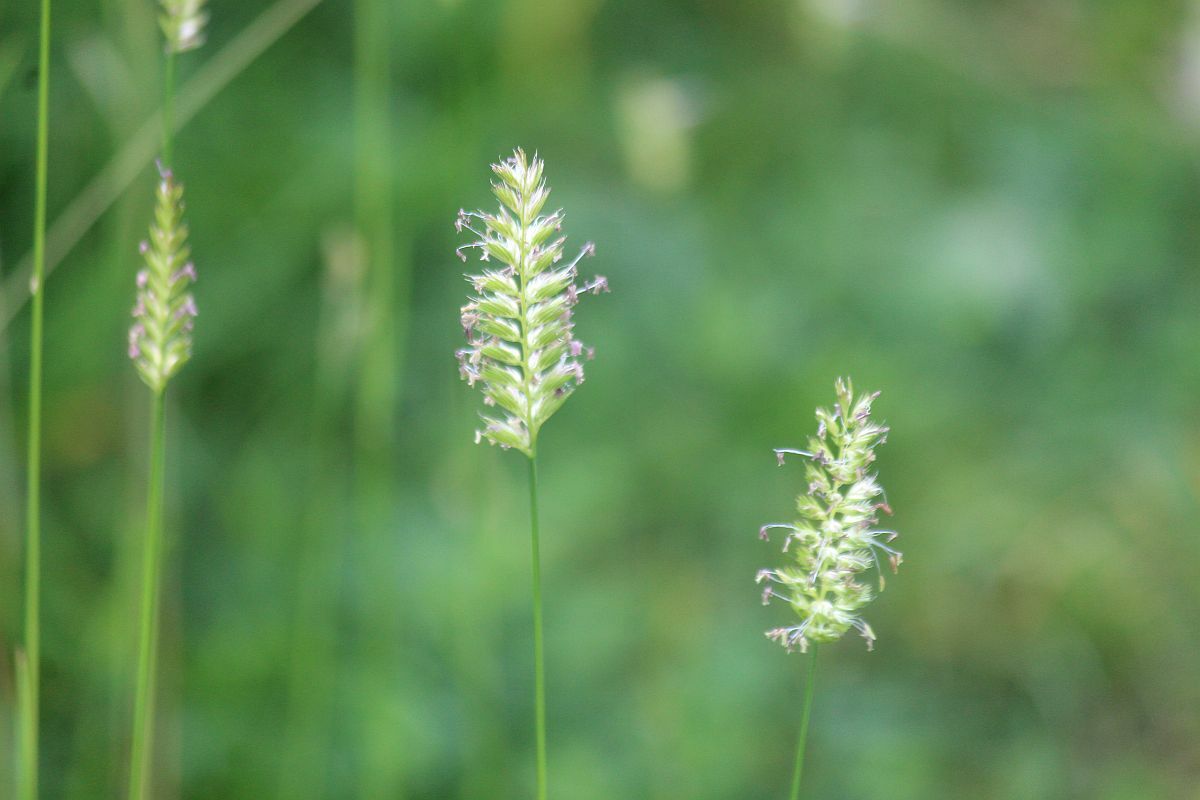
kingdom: Plantae
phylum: Tracheophyta
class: Liliopsida
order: Poales
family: Poaceae
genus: Cynosurus
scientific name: Cynosurus cristatus
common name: Crested dog's-tail
